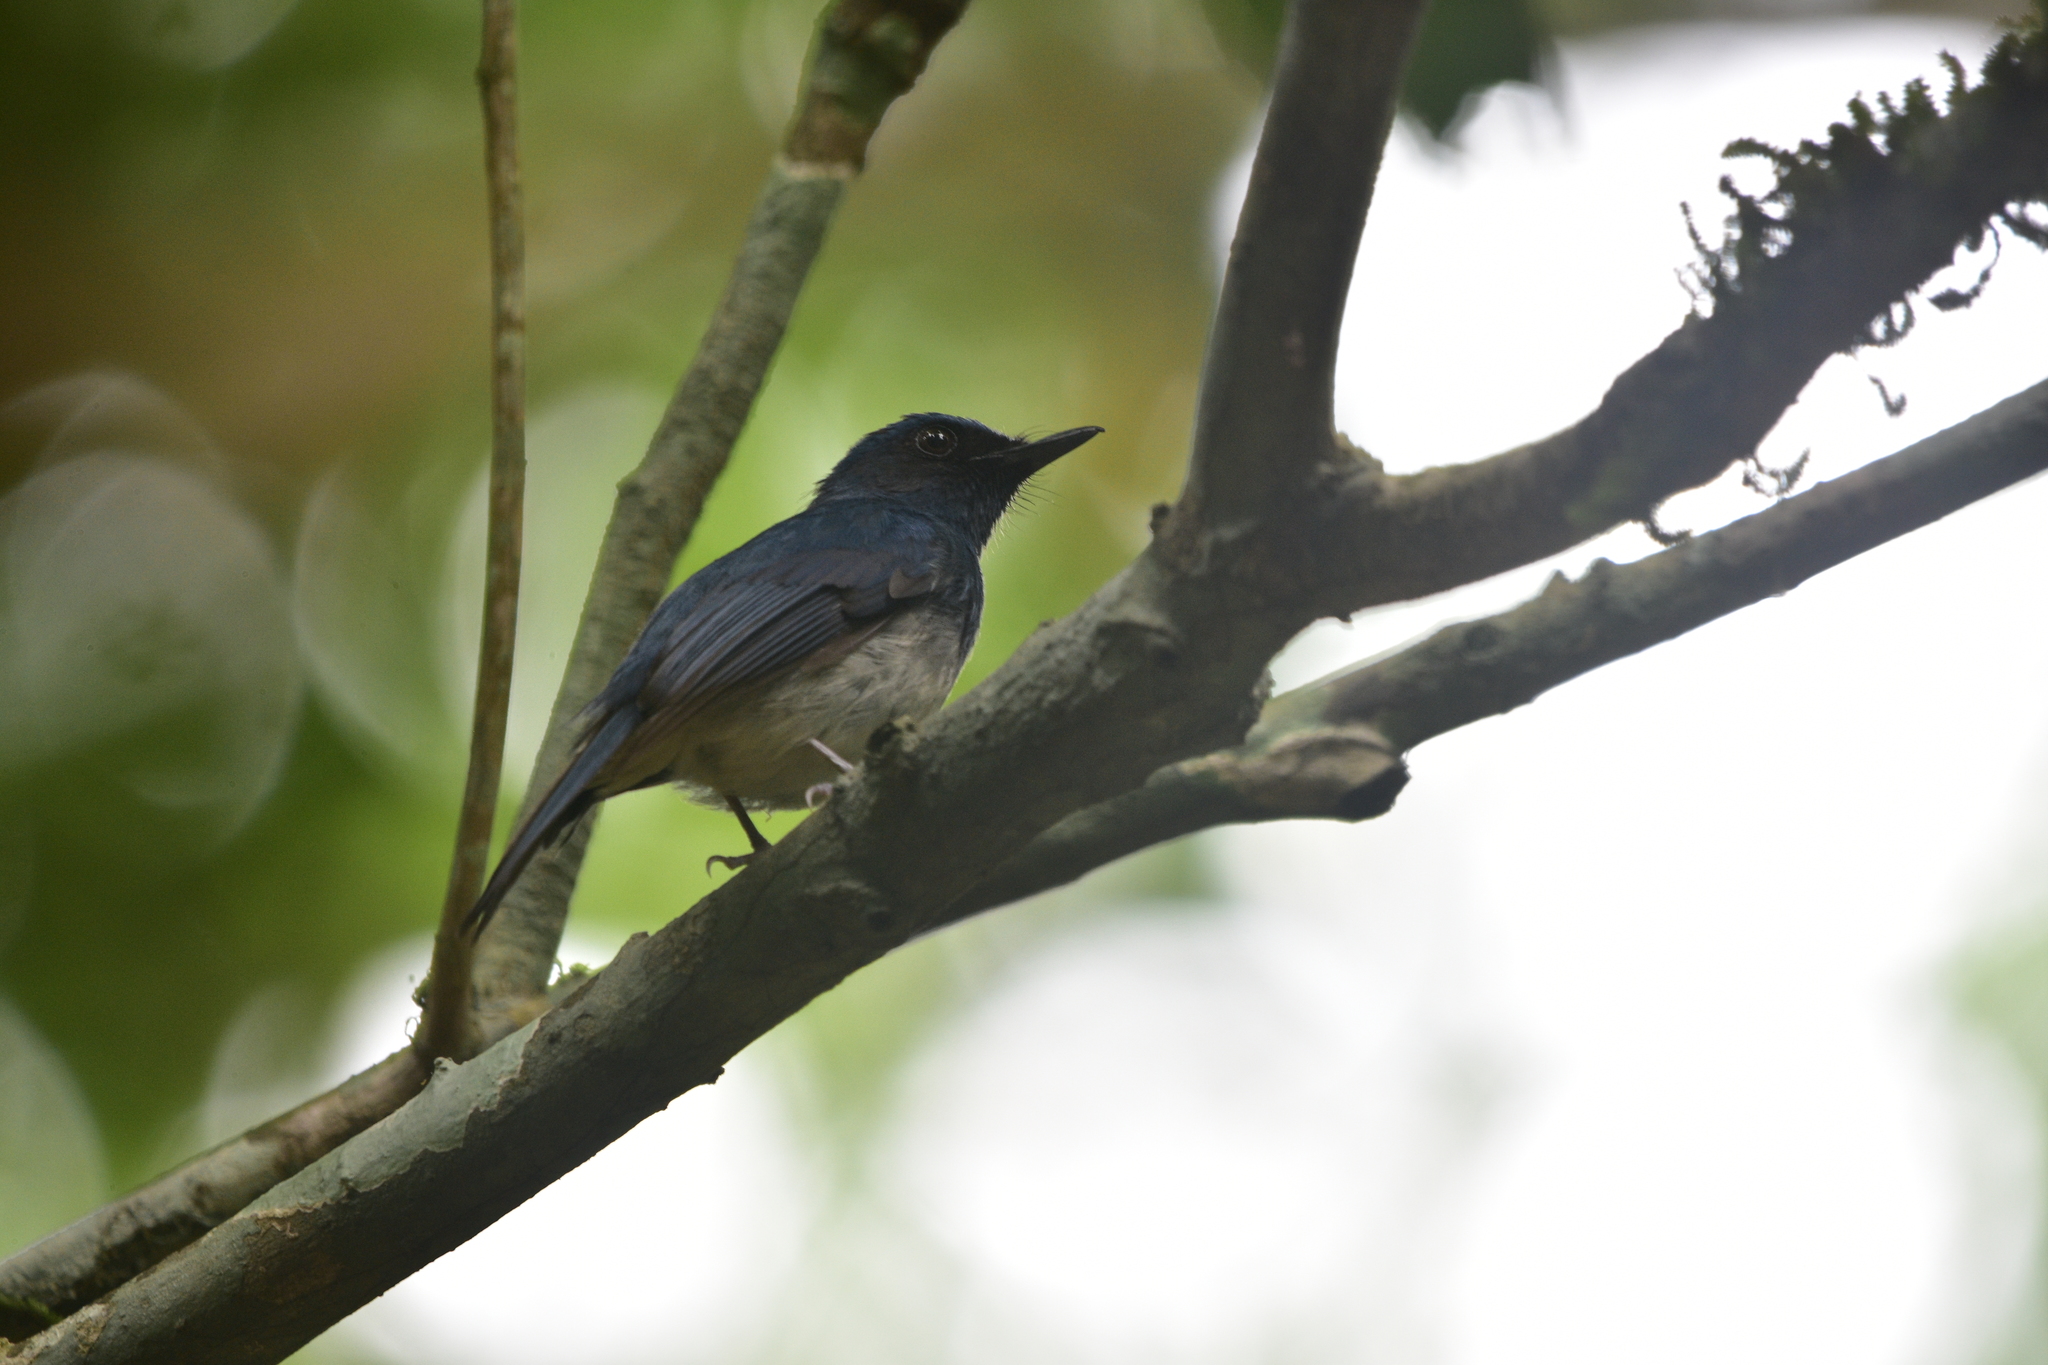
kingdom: Animalia
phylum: Chordata
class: Aves
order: Passeriformes
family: Muscicapidae
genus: Cyornis
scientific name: Cyornis pallidipes
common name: White-bellied blue flycatcher
